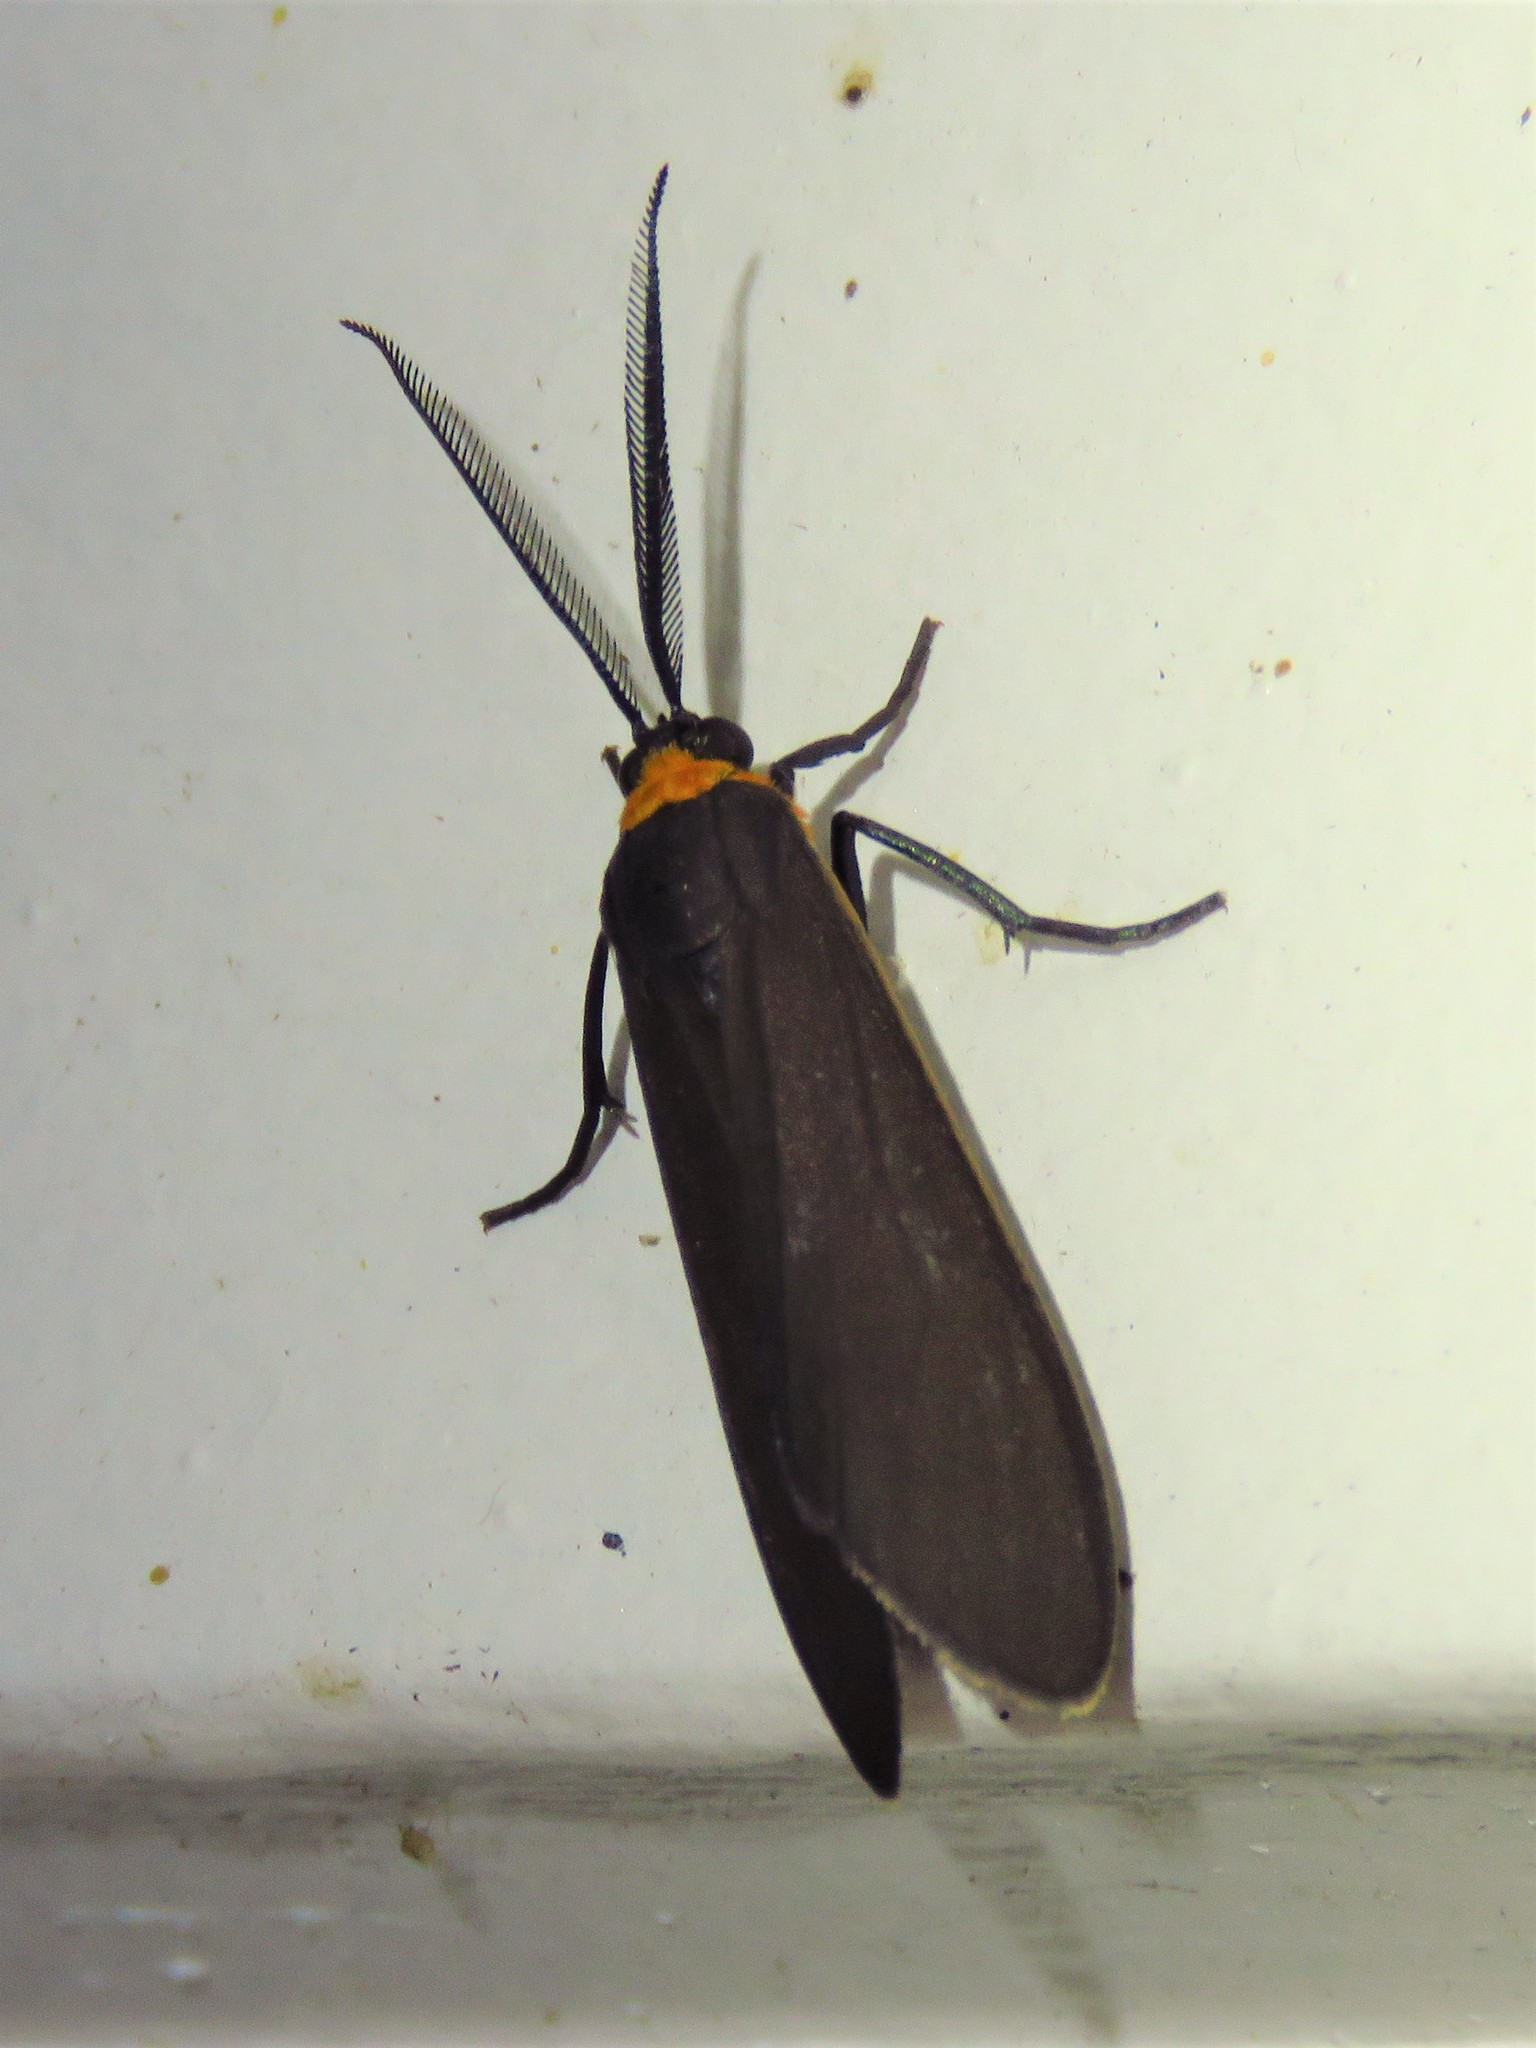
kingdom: Animalia
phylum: Arthropoda
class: Insecta
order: Lepidoptera
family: Erebidae
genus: Cisseps
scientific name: Cisseps fulvicollis
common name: Yellow-collared scape moth
